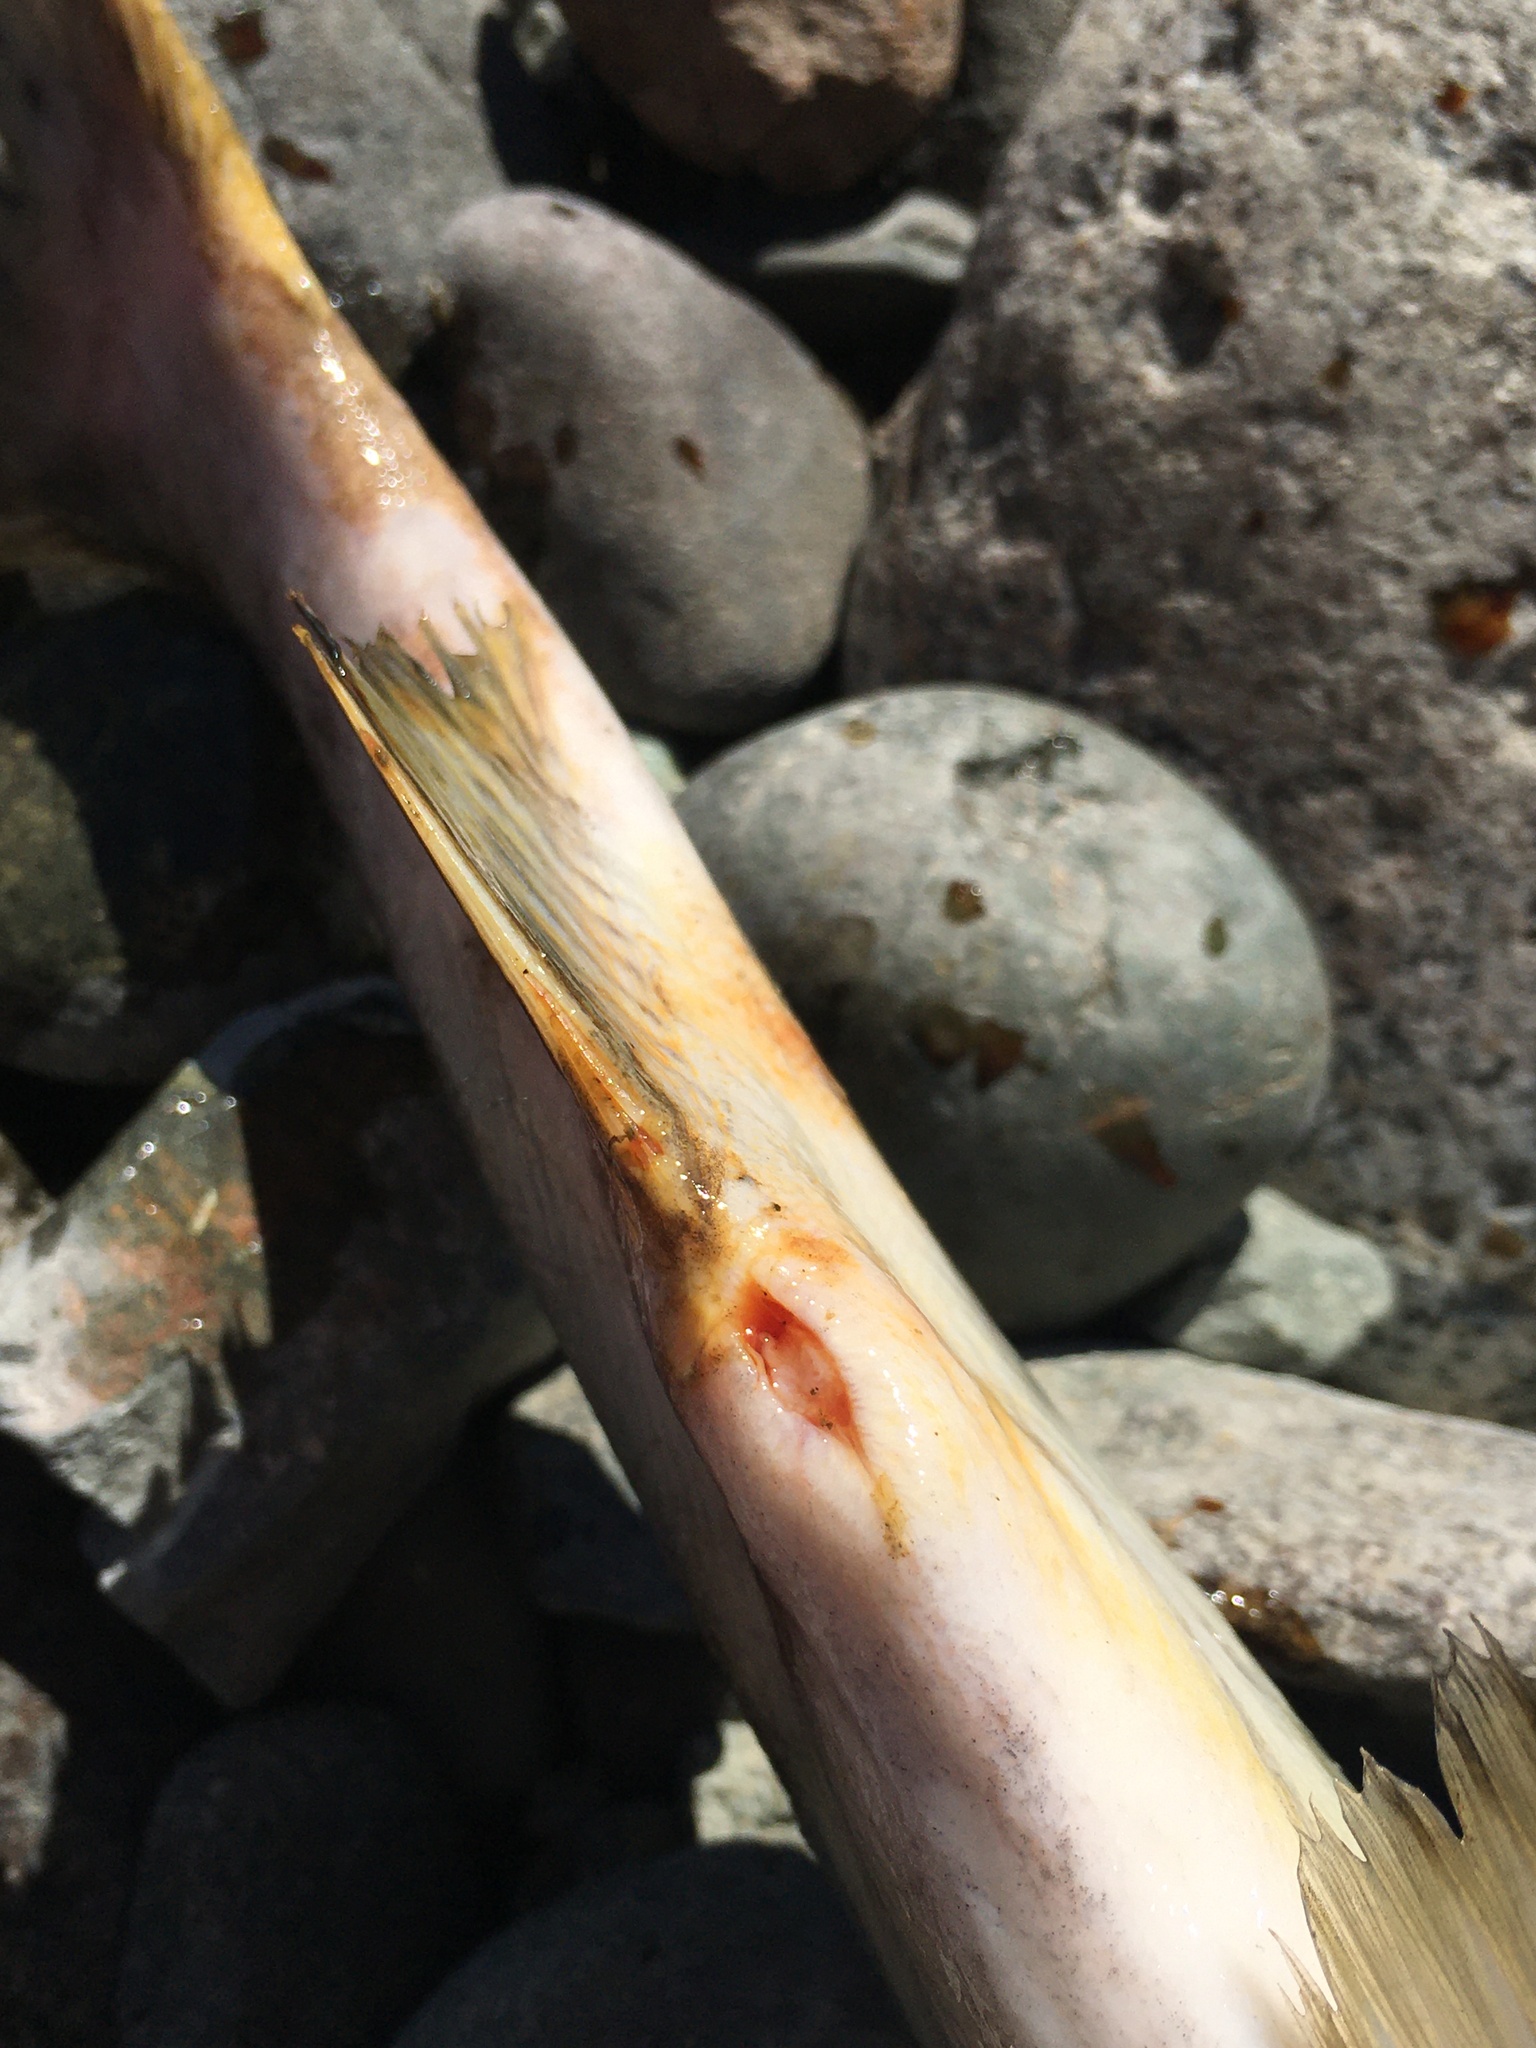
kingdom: Animalia
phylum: Chordata
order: Salmoniformes
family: Salmonidae
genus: Oncorhynchus
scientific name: Oncorhynchus gorbuscha
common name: Humpback salmon
